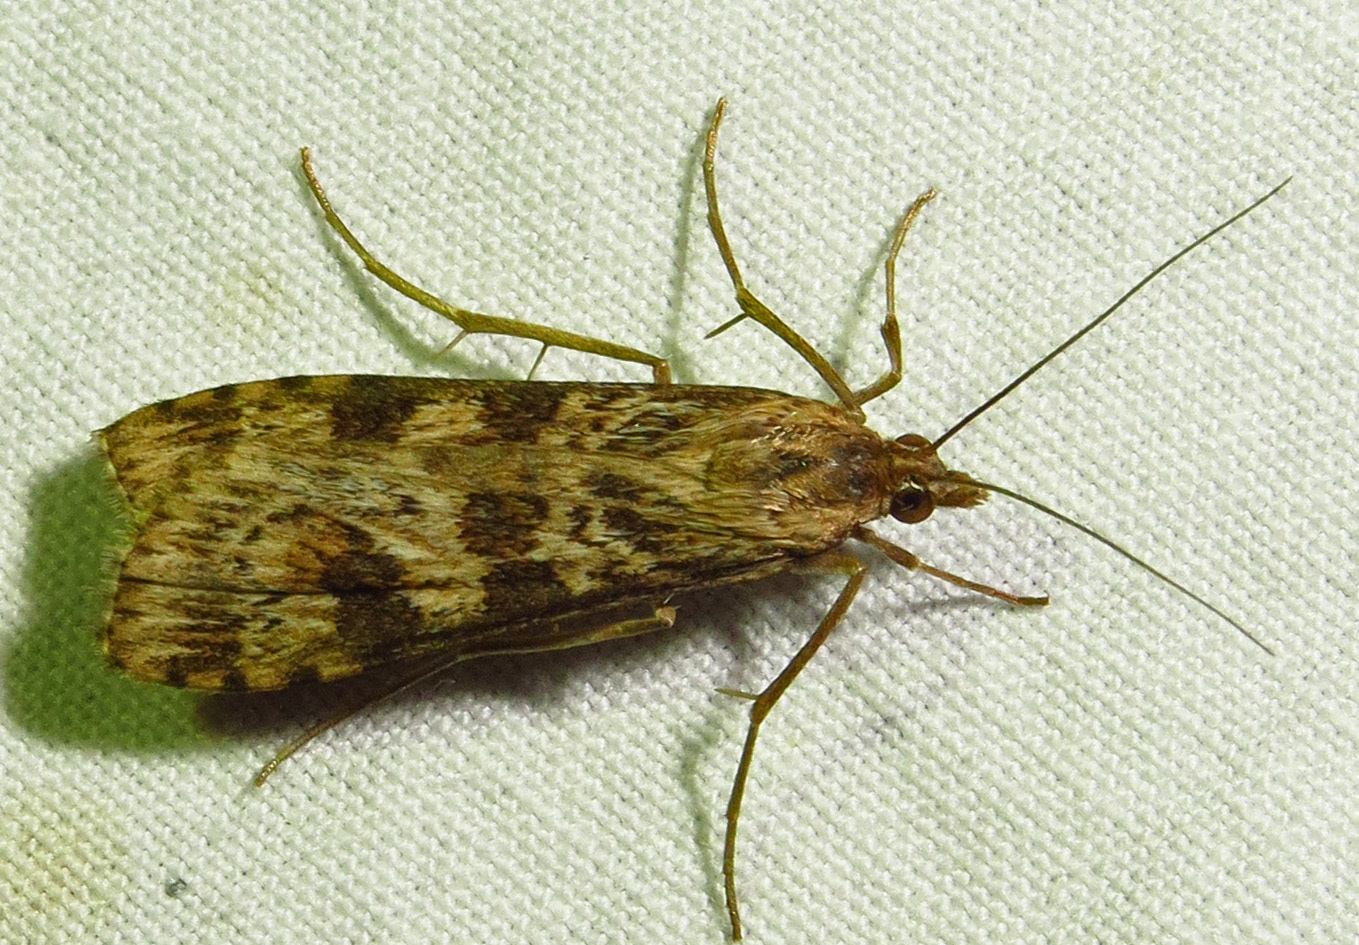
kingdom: Animalia
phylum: Arthropoda
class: Insecta
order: Lepidoptera
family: Crambidae
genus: Nomophila
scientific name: Nomophila nearctica
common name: American rush veneer
